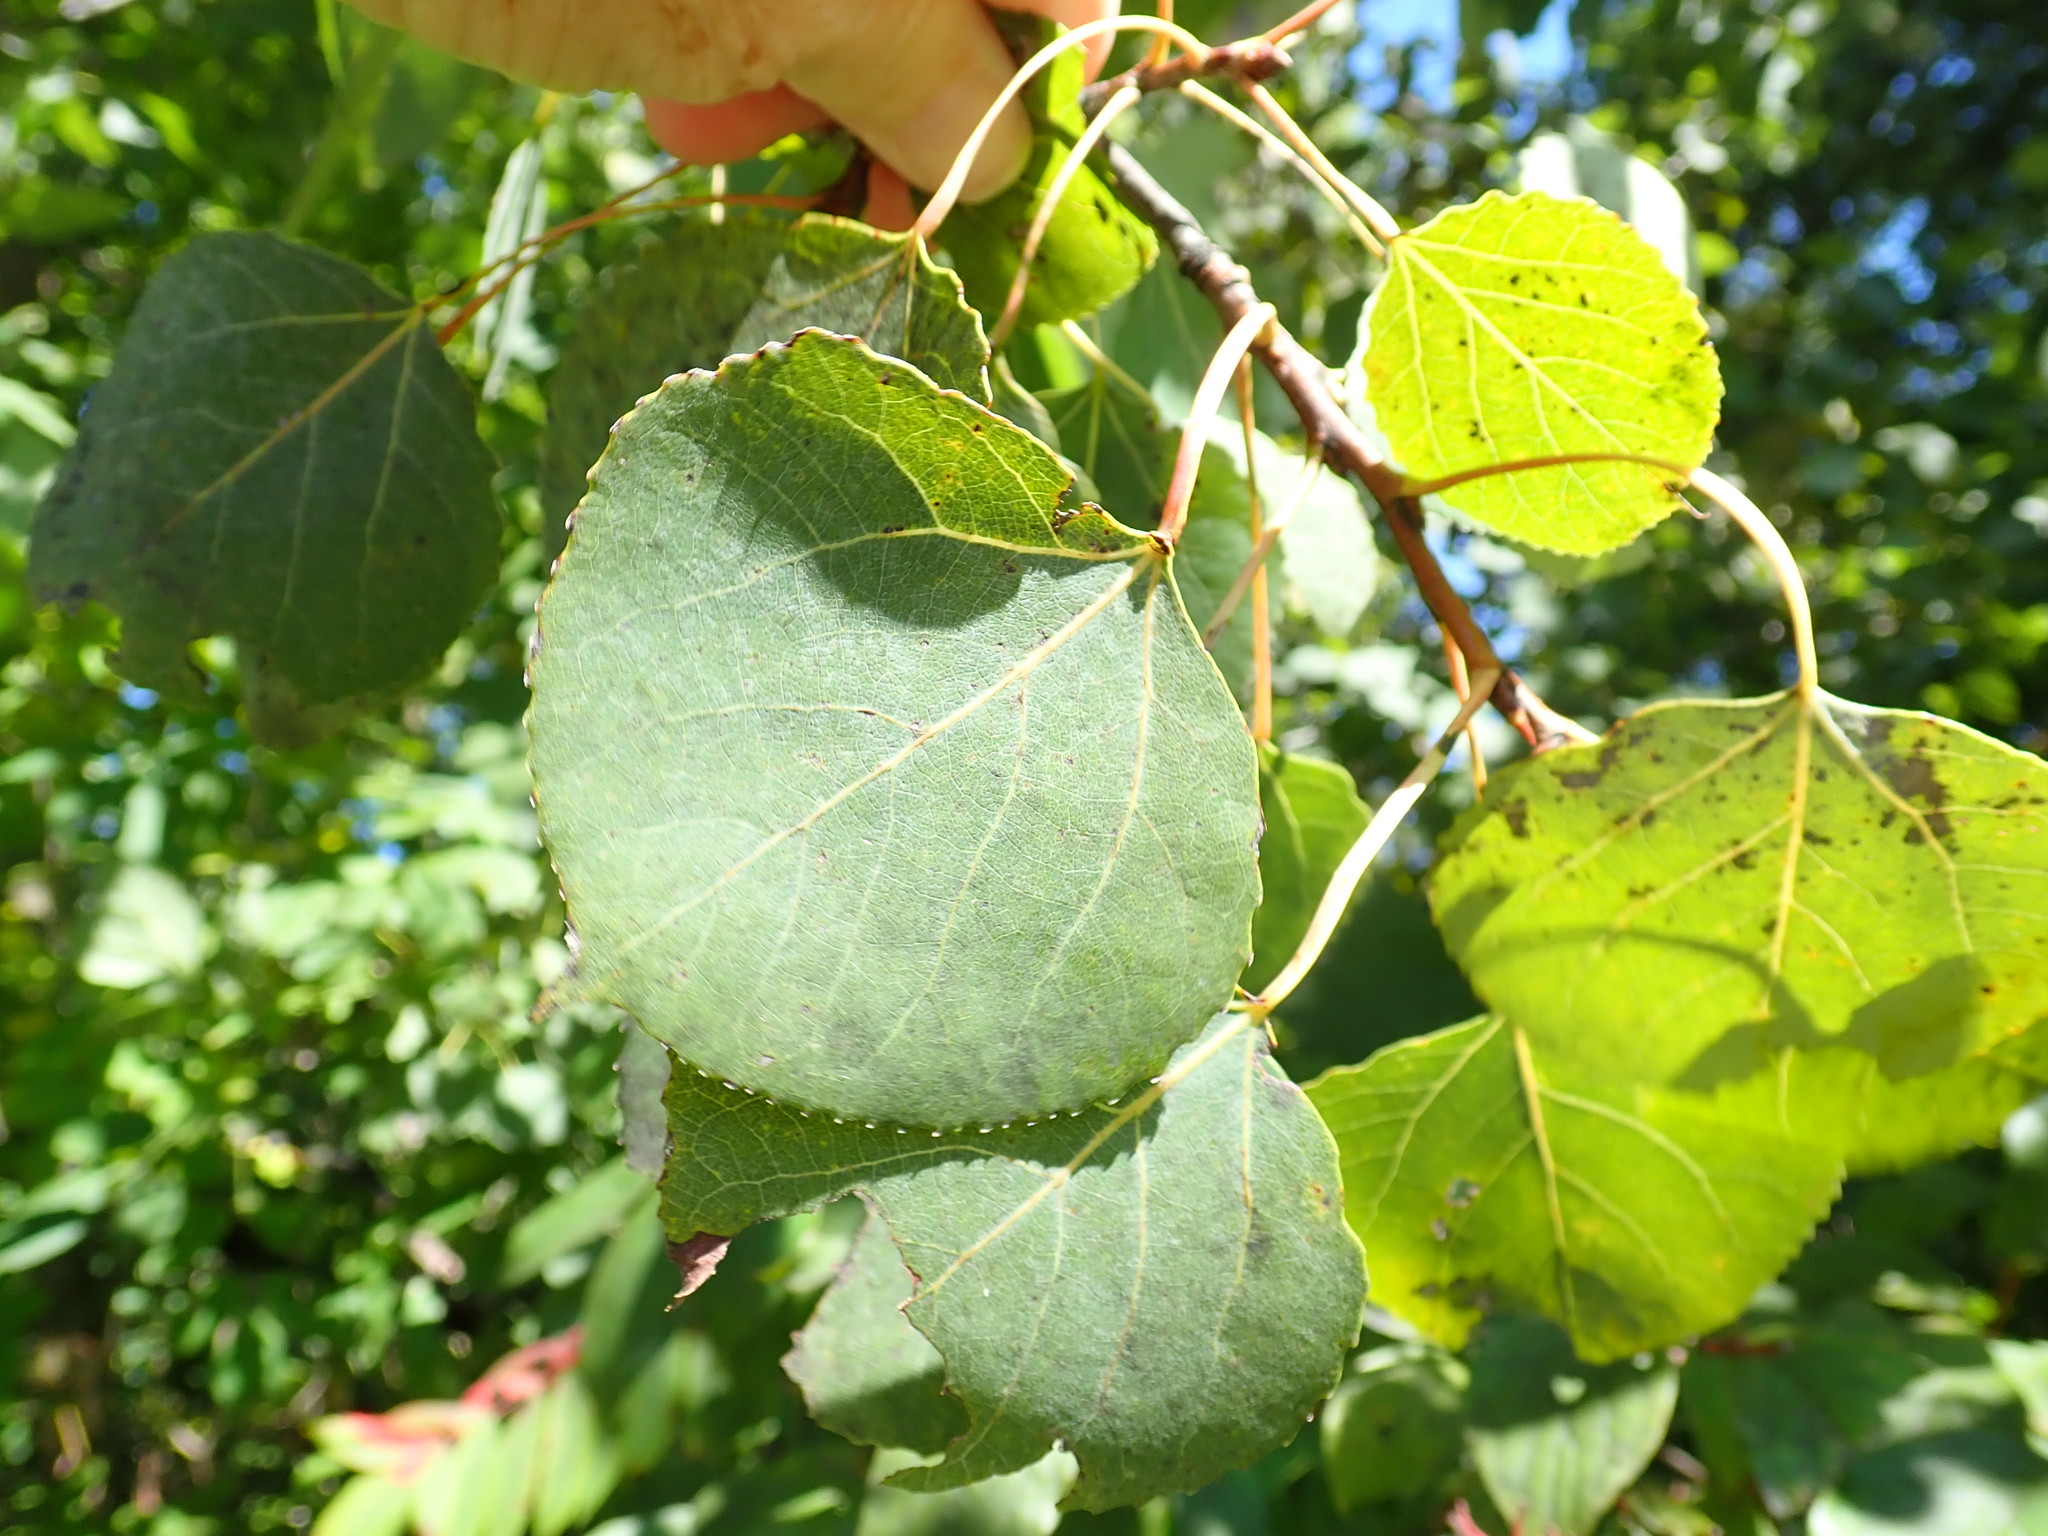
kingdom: Plantae
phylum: Tracheophyta
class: Magnoliopsida
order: Malpighiales
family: Salicaceae
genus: Populus
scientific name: Populus tremuloides
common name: Quaking aspen
